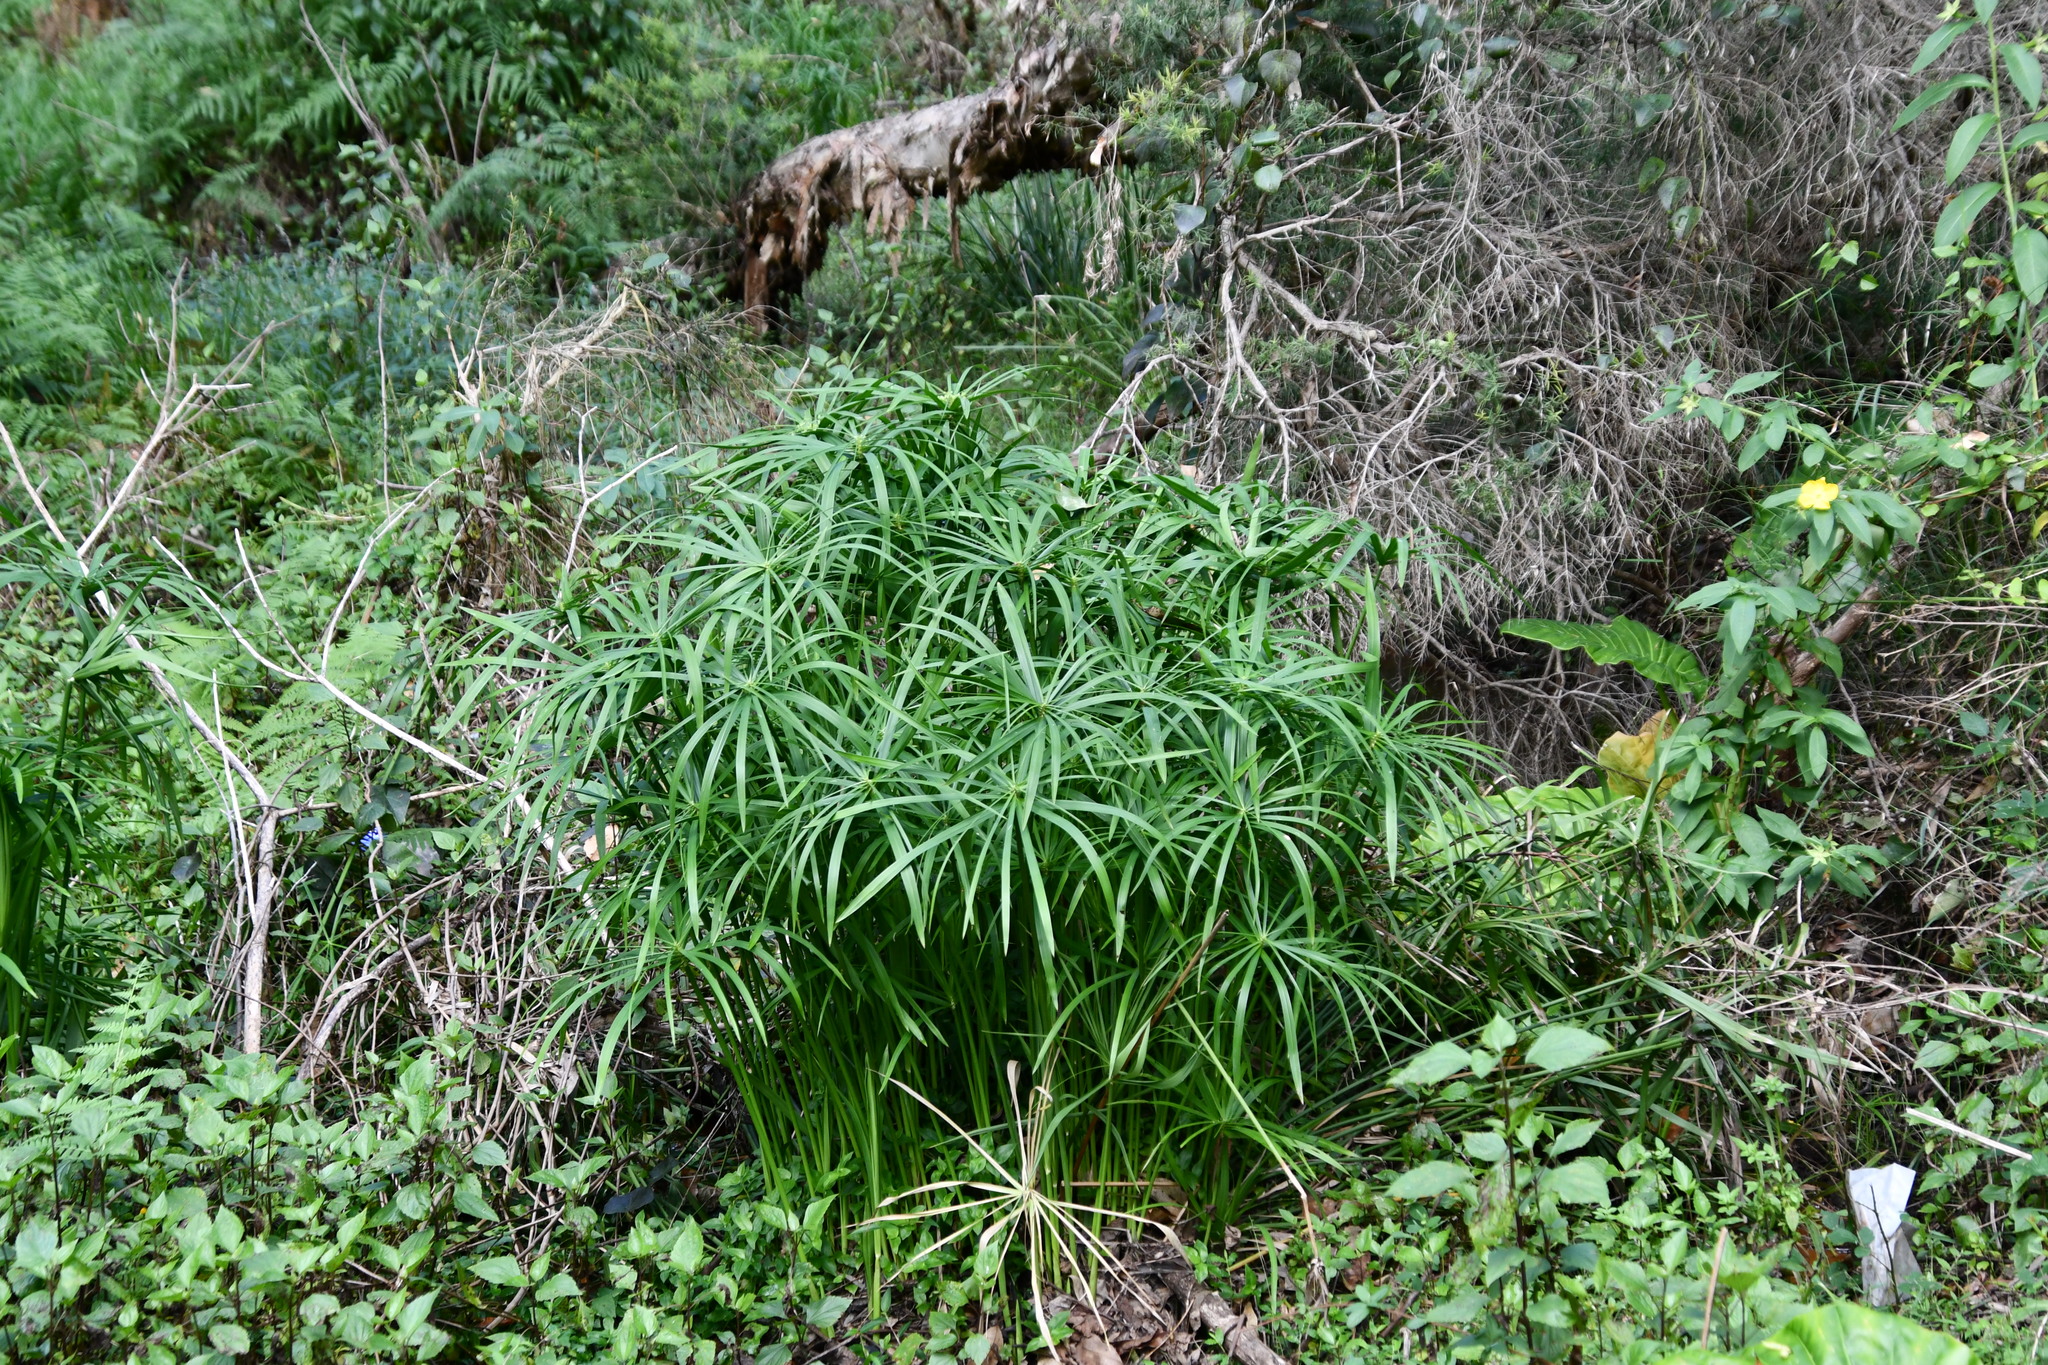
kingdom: Plantae
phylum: Tracheophyta
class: Liliopsida
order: Poales
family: Cyperaceae
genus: Cyperus
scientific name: Cyperus alternifolius
